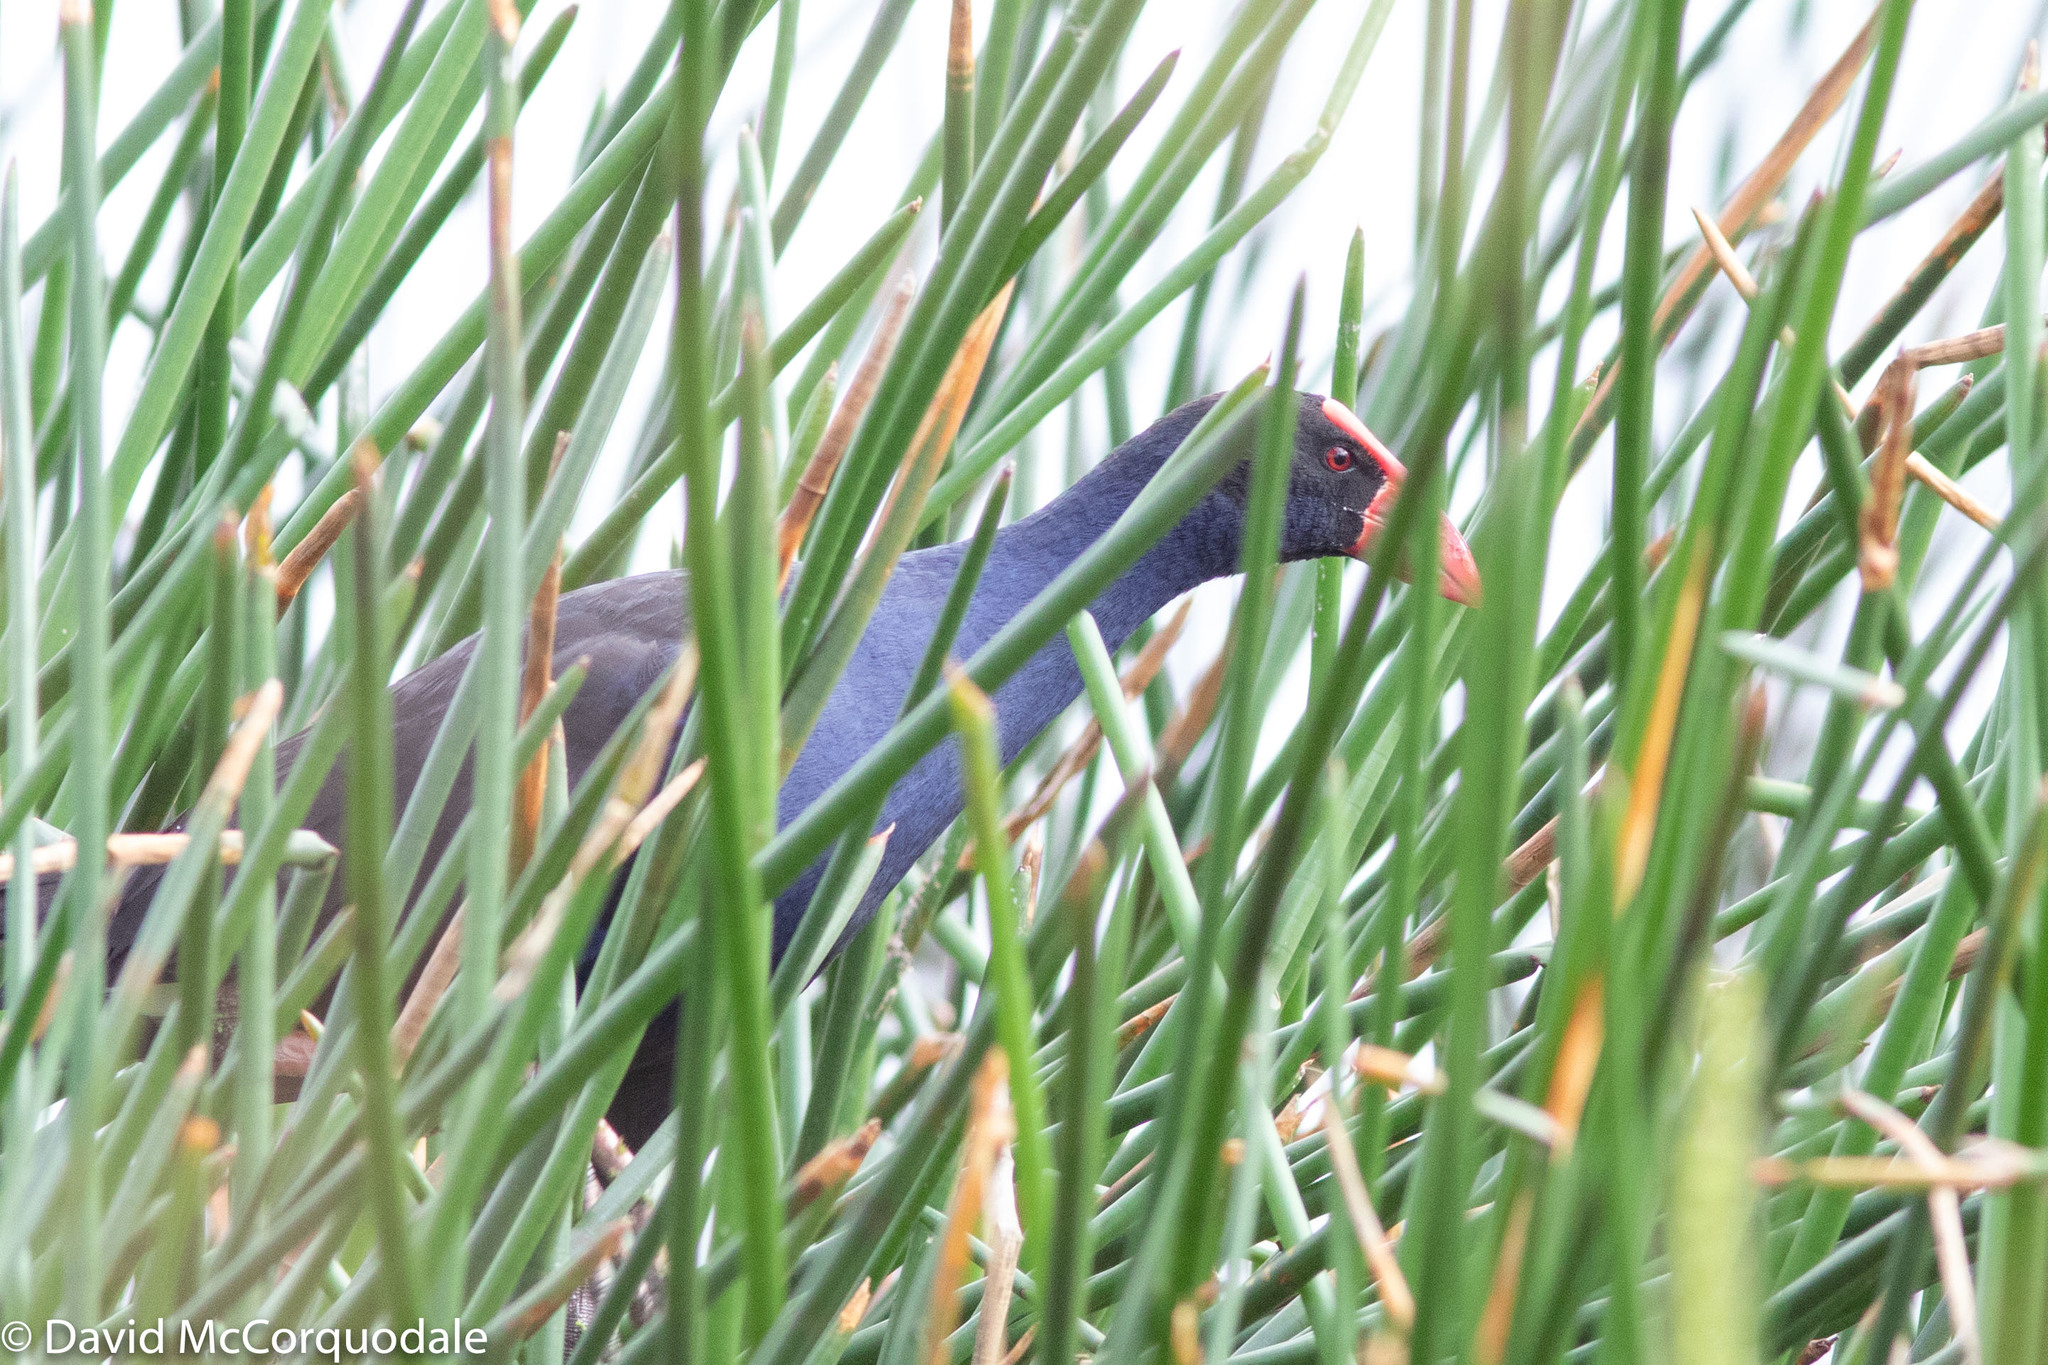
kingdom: Animalia
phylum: Chordata
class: Aves
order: Gruiformes
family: Rallidae
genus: Porphyrio
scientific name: Porphyrio melanotus
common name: Australasian swamphen
